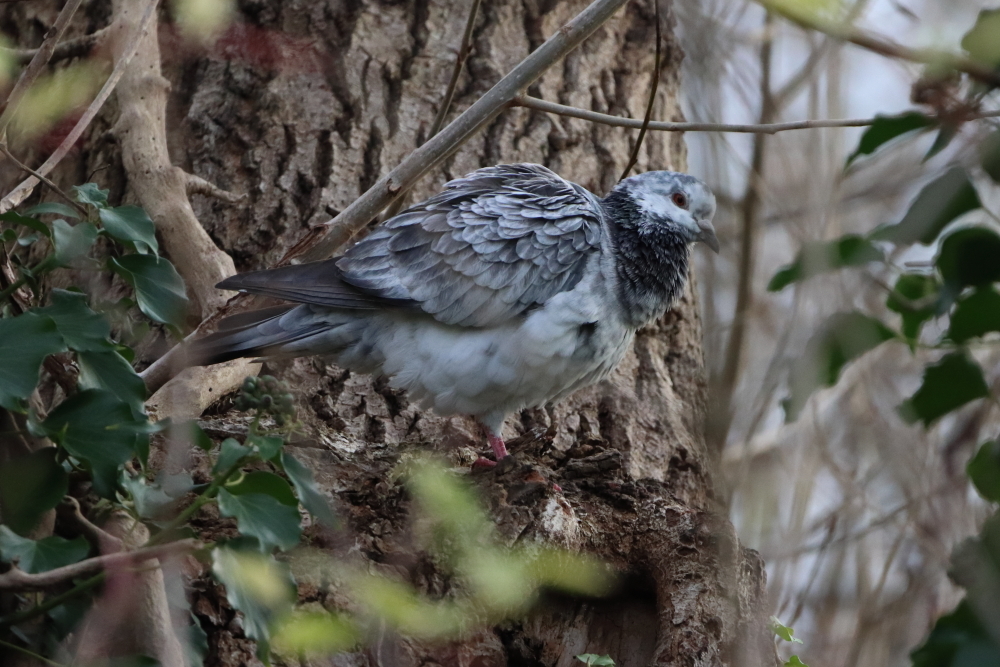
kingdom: Animalia
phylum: Chordata
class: Aves
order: Columbiformes
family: Columbidae
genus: Columba
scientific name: Columba livia
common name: Rock pigeon
